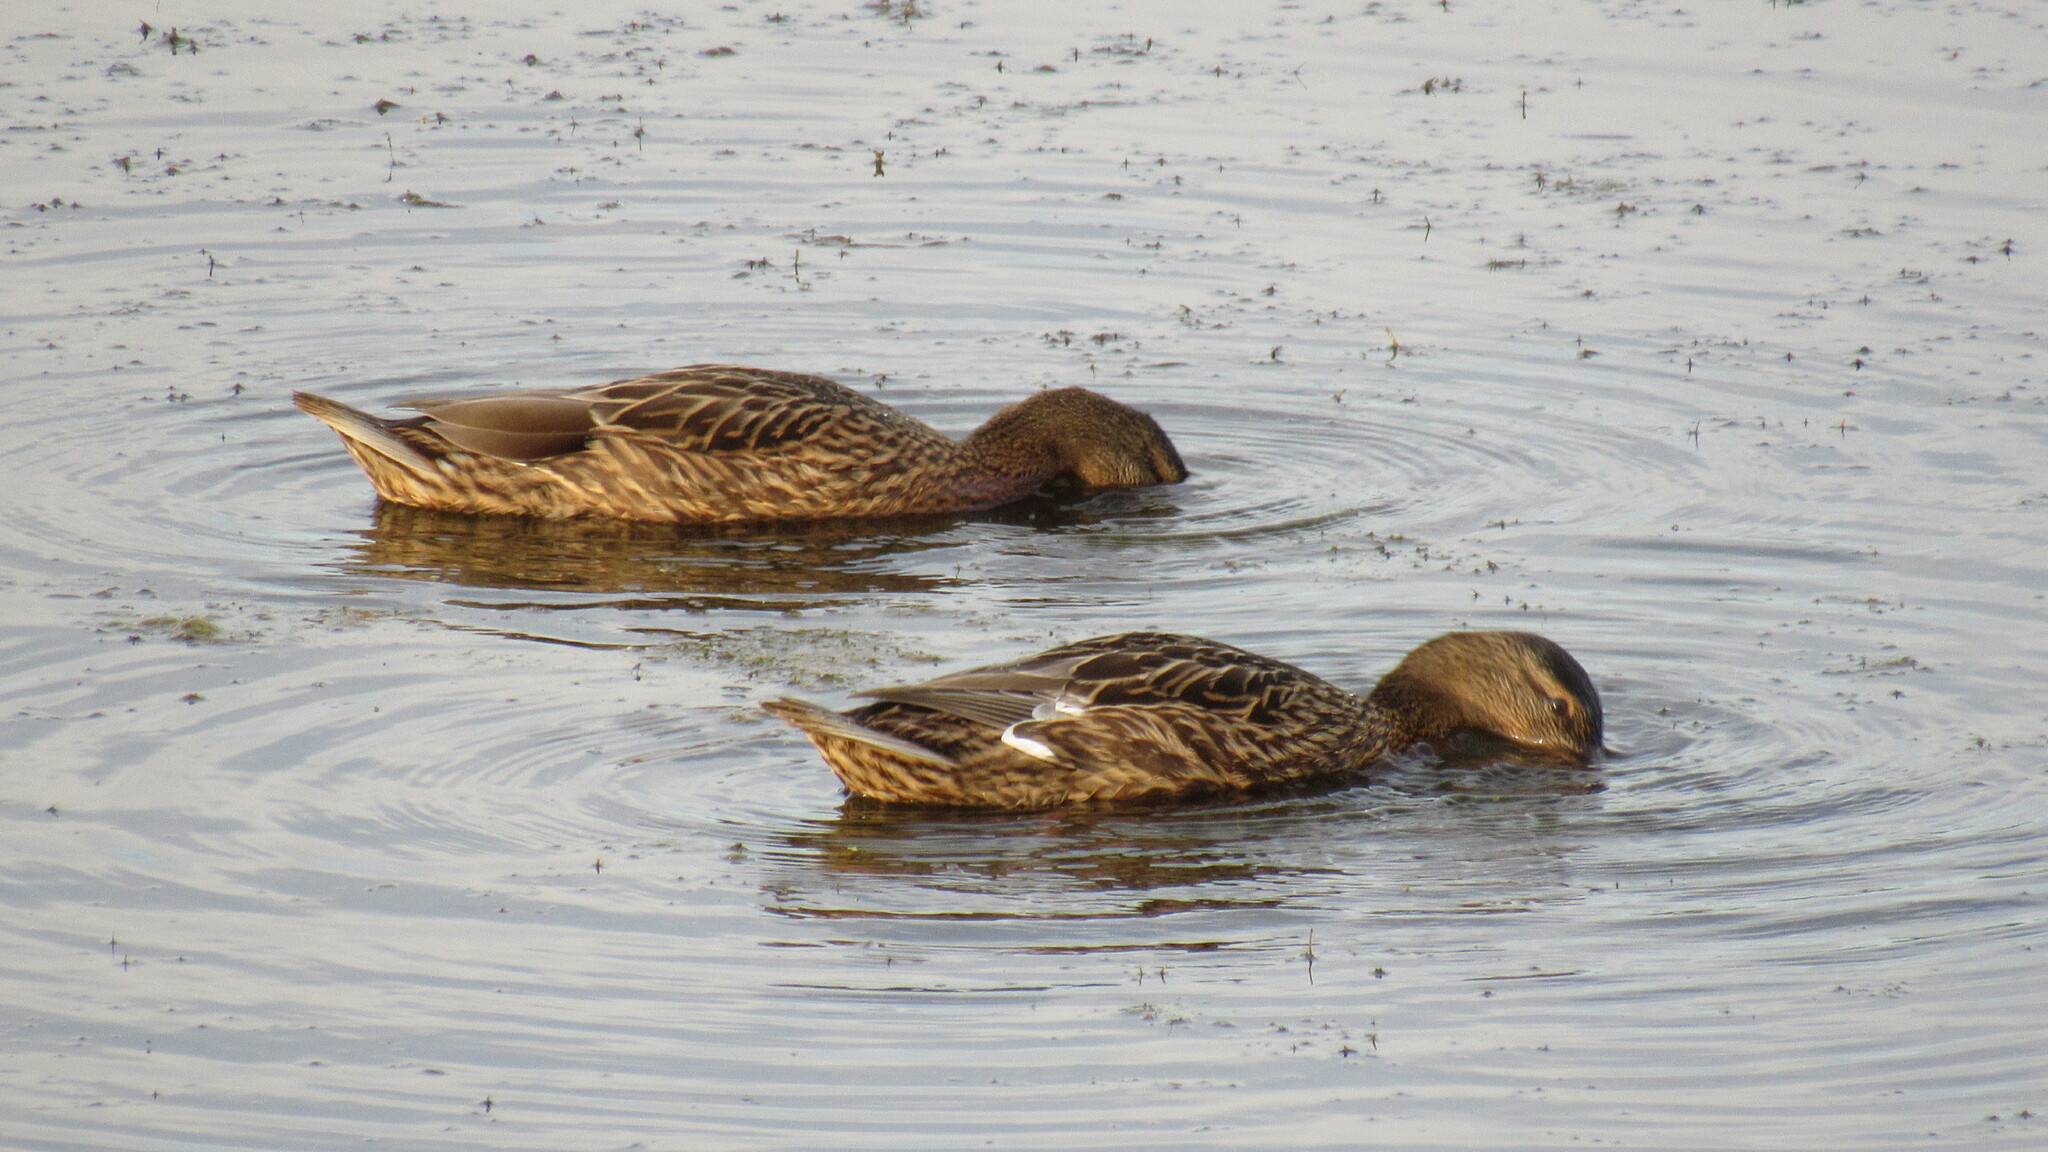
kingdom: Animalia
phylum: Chordata
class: Aves
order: Anseriformes
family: Anatidae
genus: Anas
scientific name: Anas platyrhynchos
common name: Mallard
